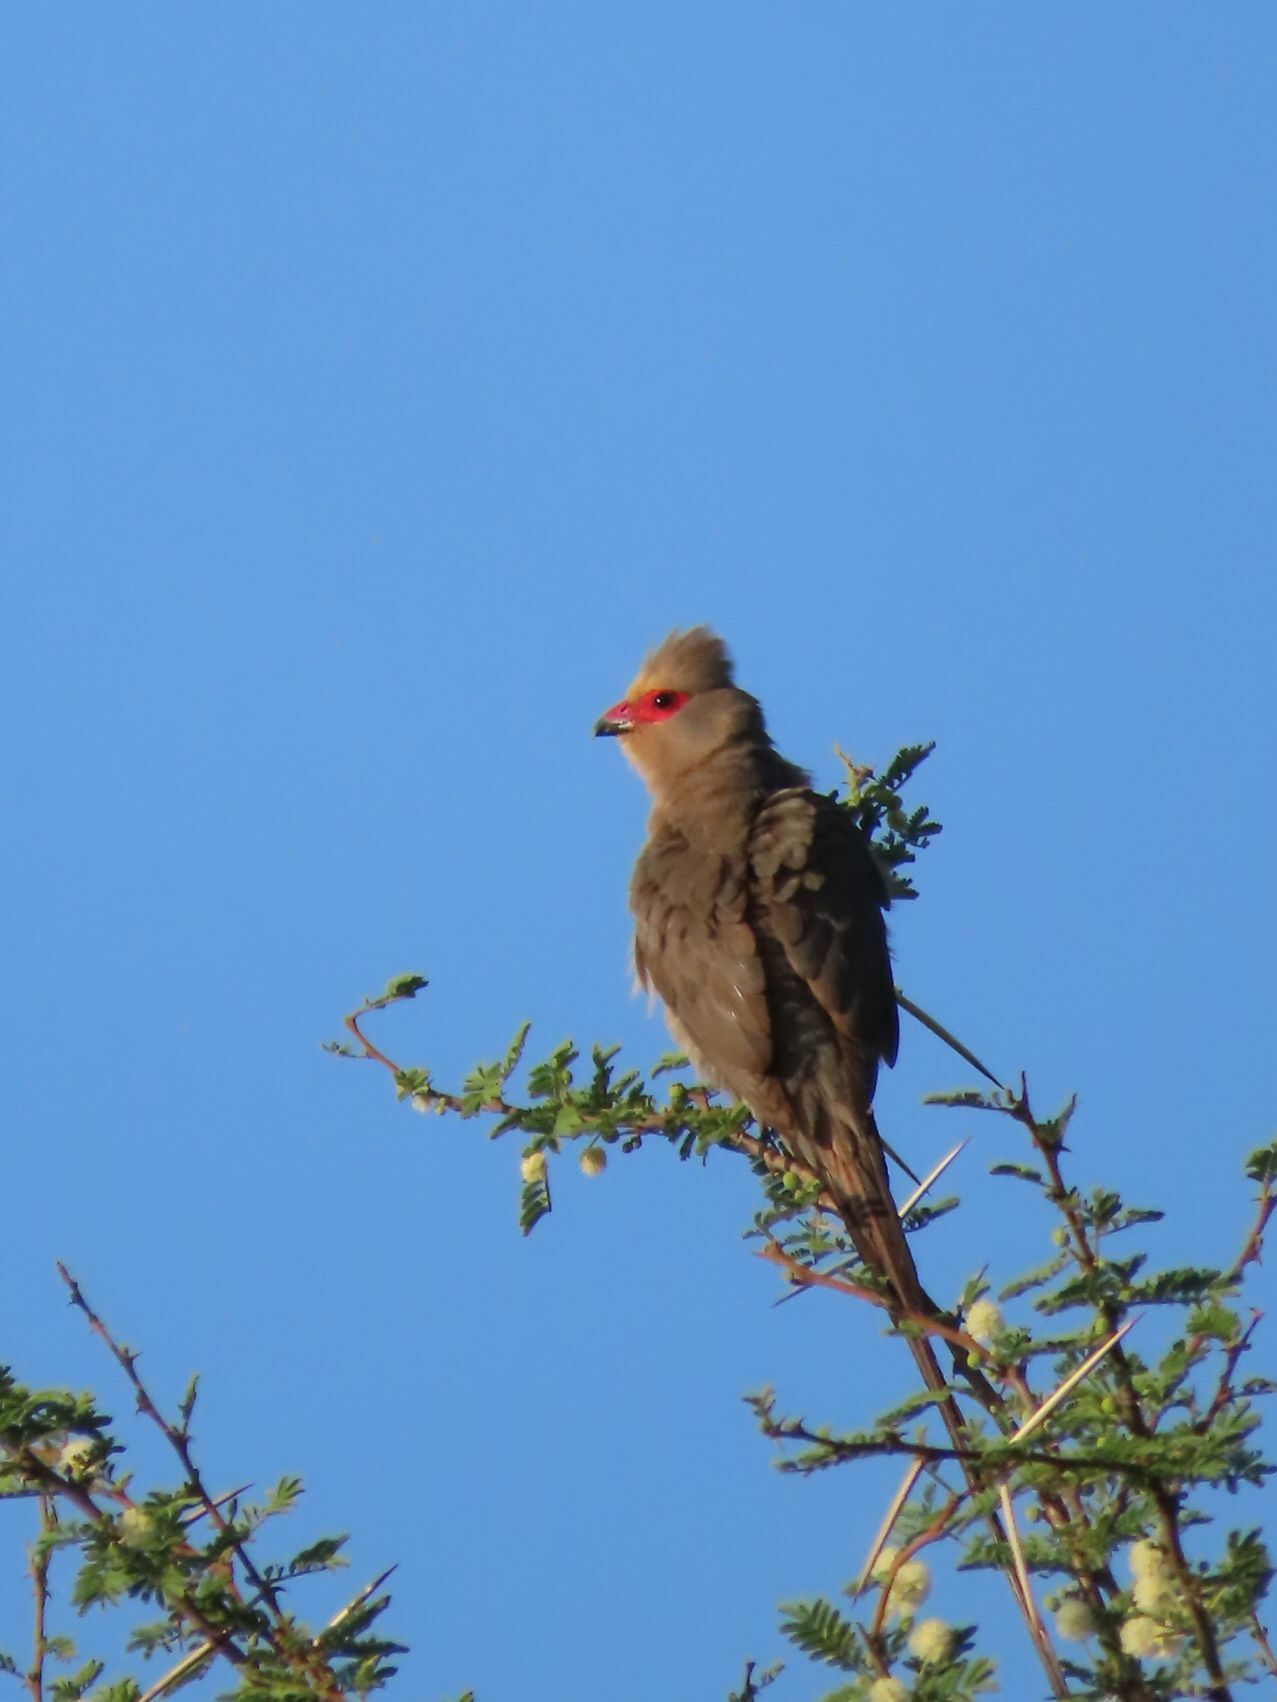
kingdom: Animalia
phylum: Chordata
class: Aves
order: Coliiformes
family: Coliidae
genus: Urocolius
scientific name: Urocolius indicus
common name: Red-faced mousebird
